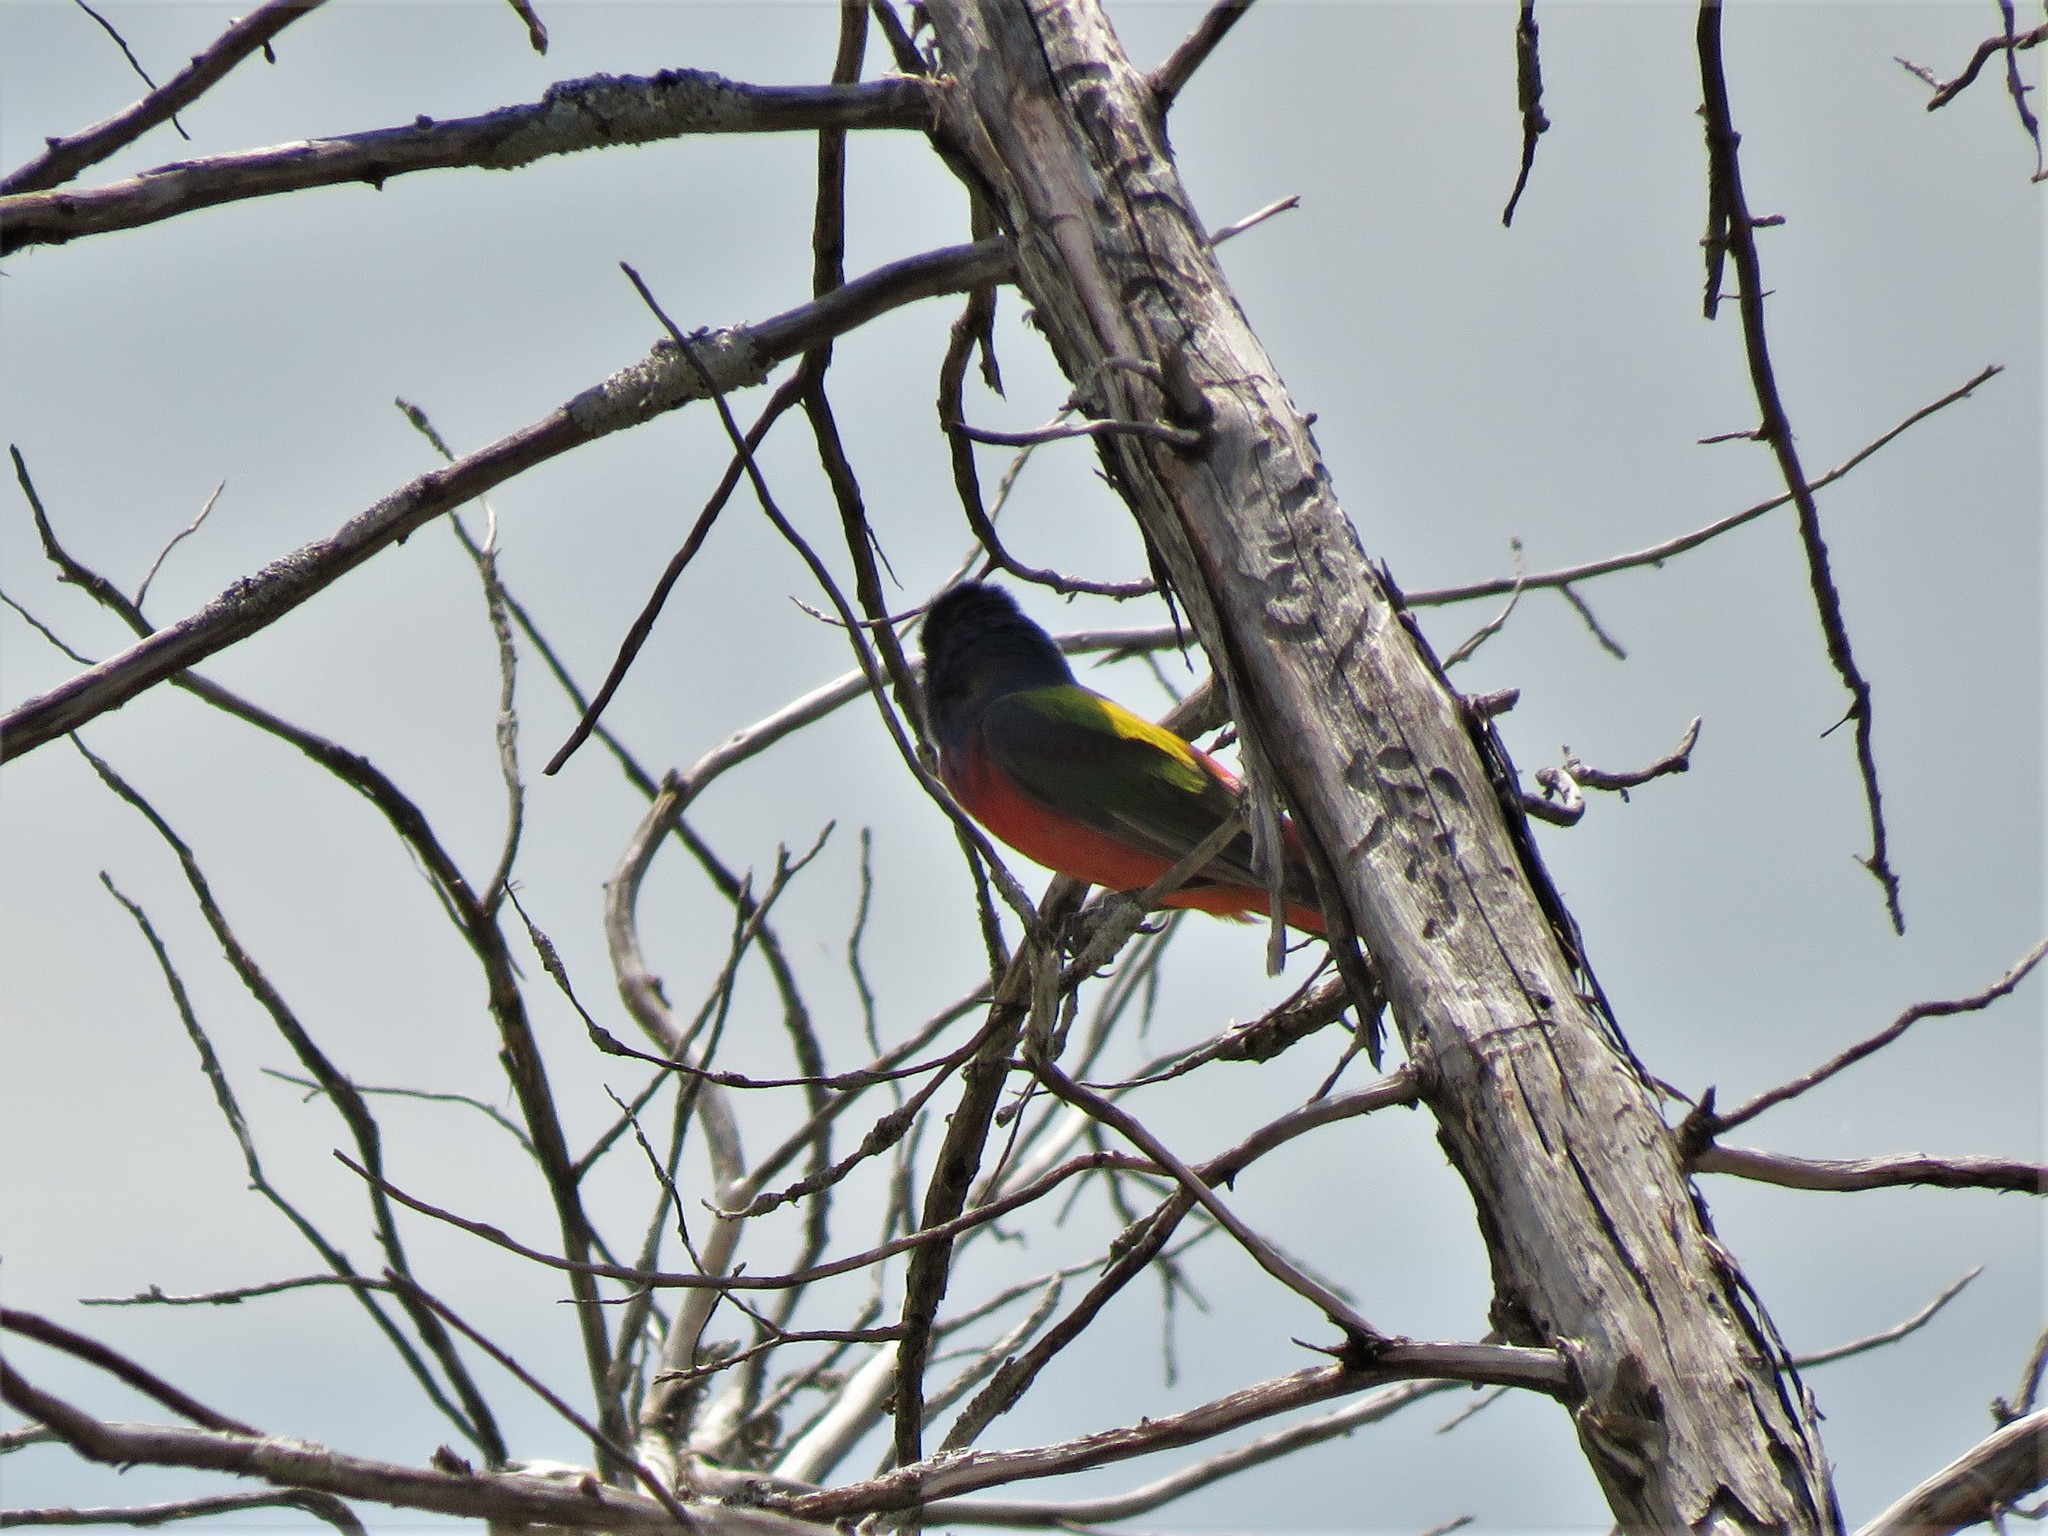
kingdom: Animalia
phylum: Chordata
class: Aves
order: Passeriformes
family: Cardinalidae
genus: Passerina
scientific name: Passerina ciris
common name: Painted bunting
